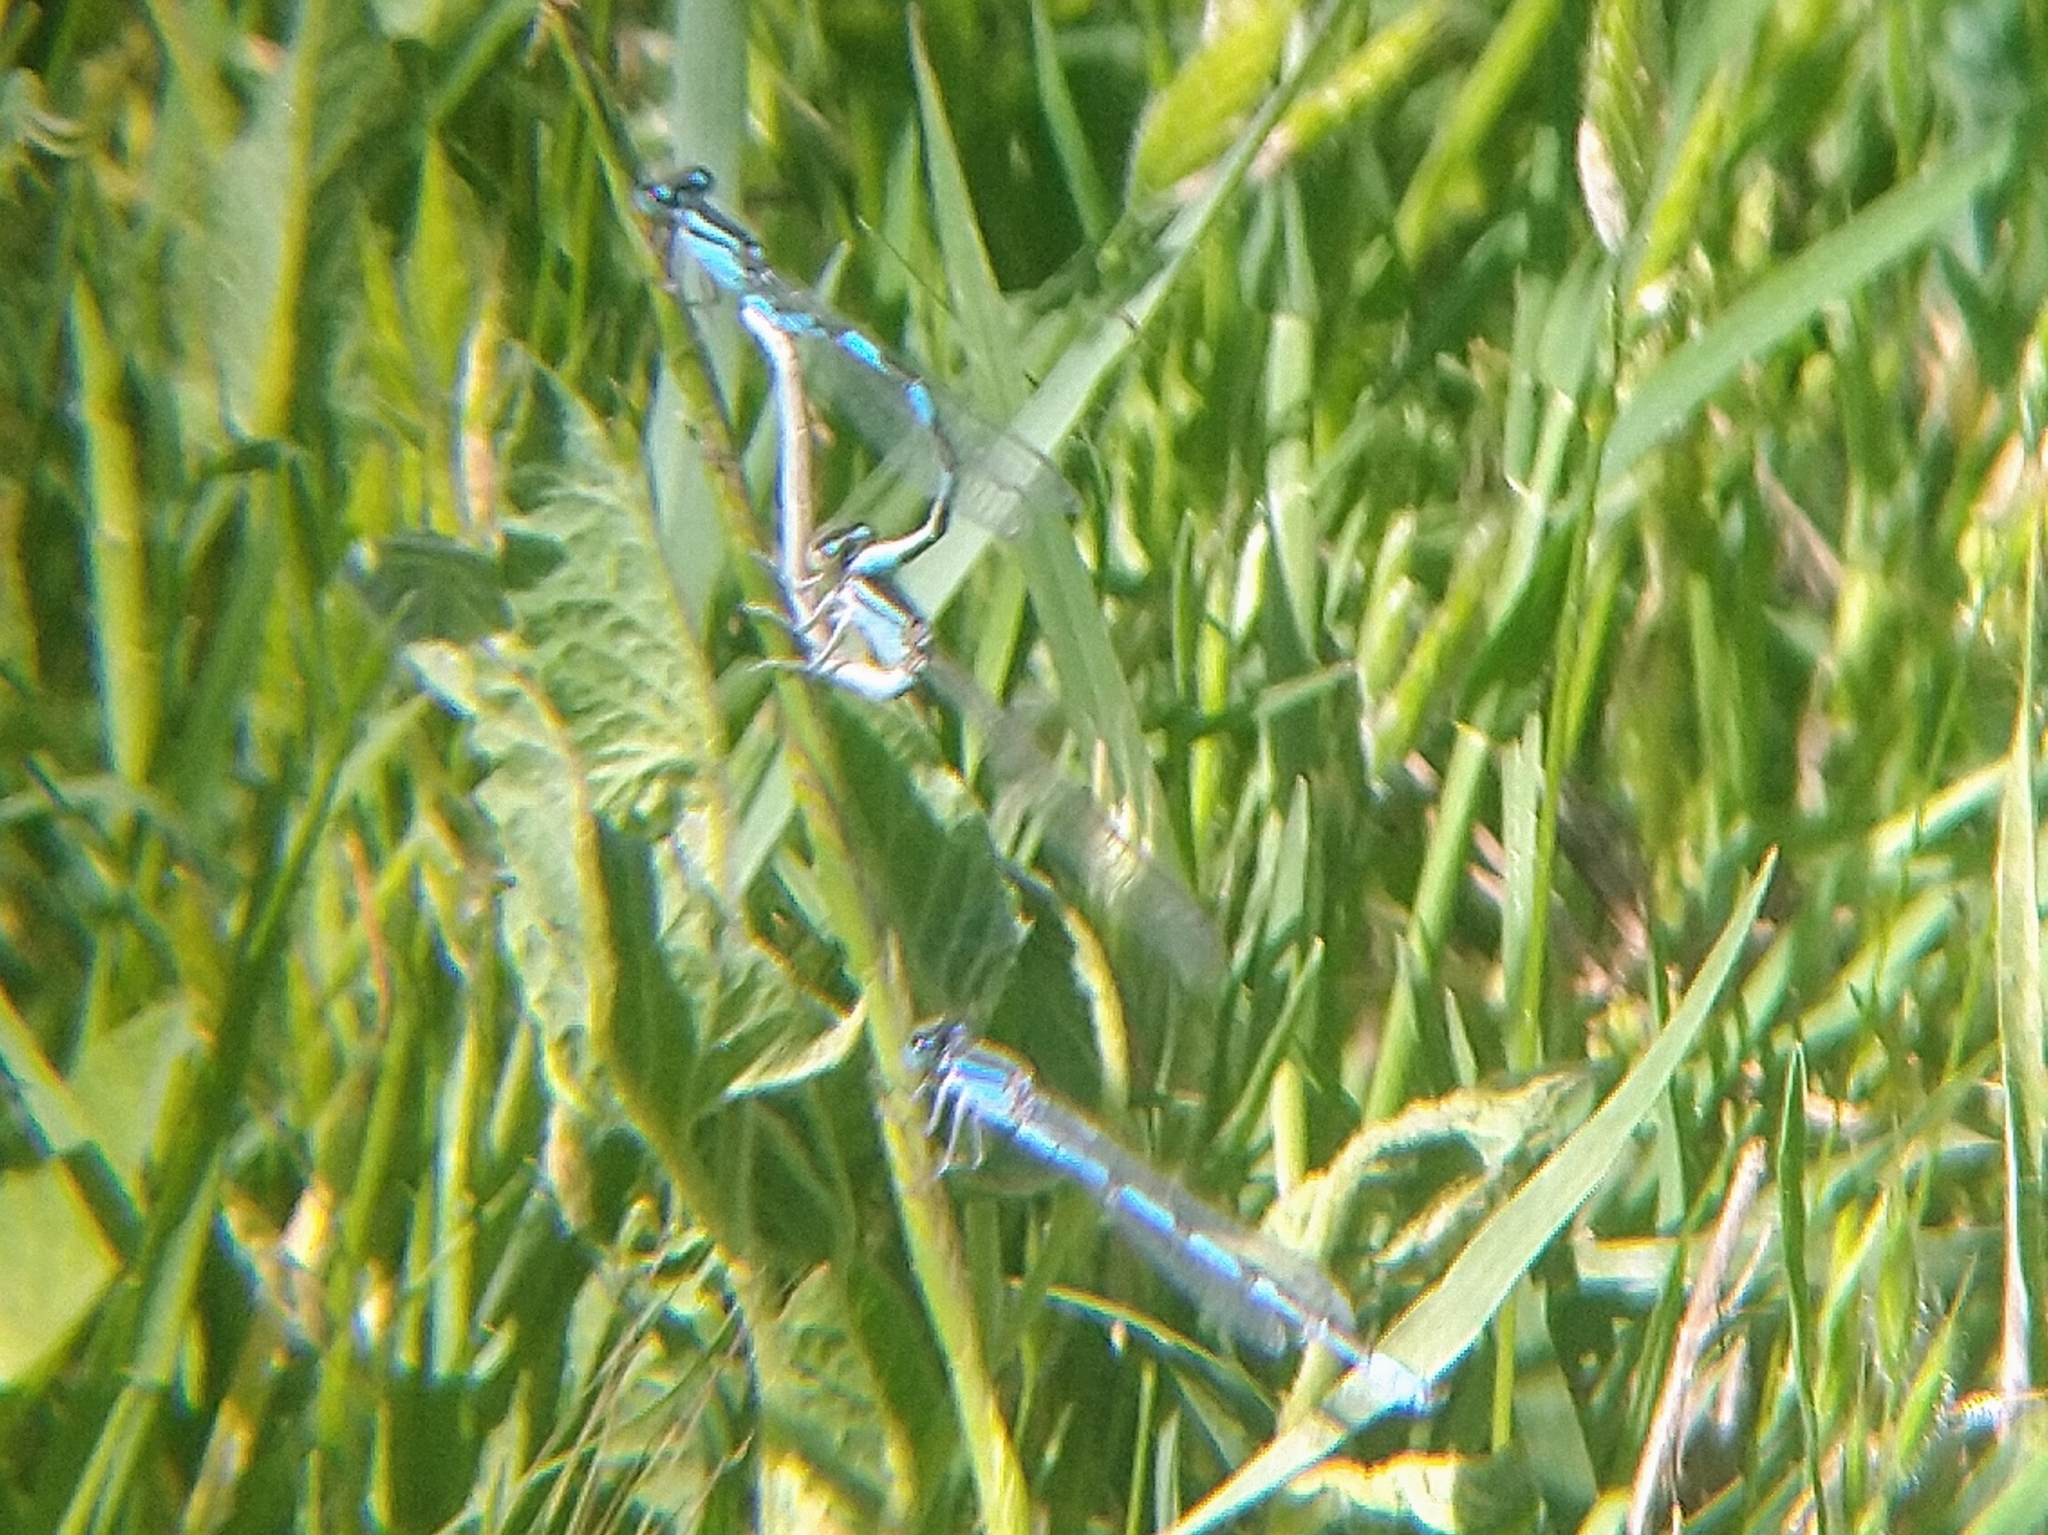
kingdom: Animalia
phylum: Arthropoda
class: Insecta
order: Odonata
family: Coenagrionidae
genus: Enallagma
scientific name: Enallagma
